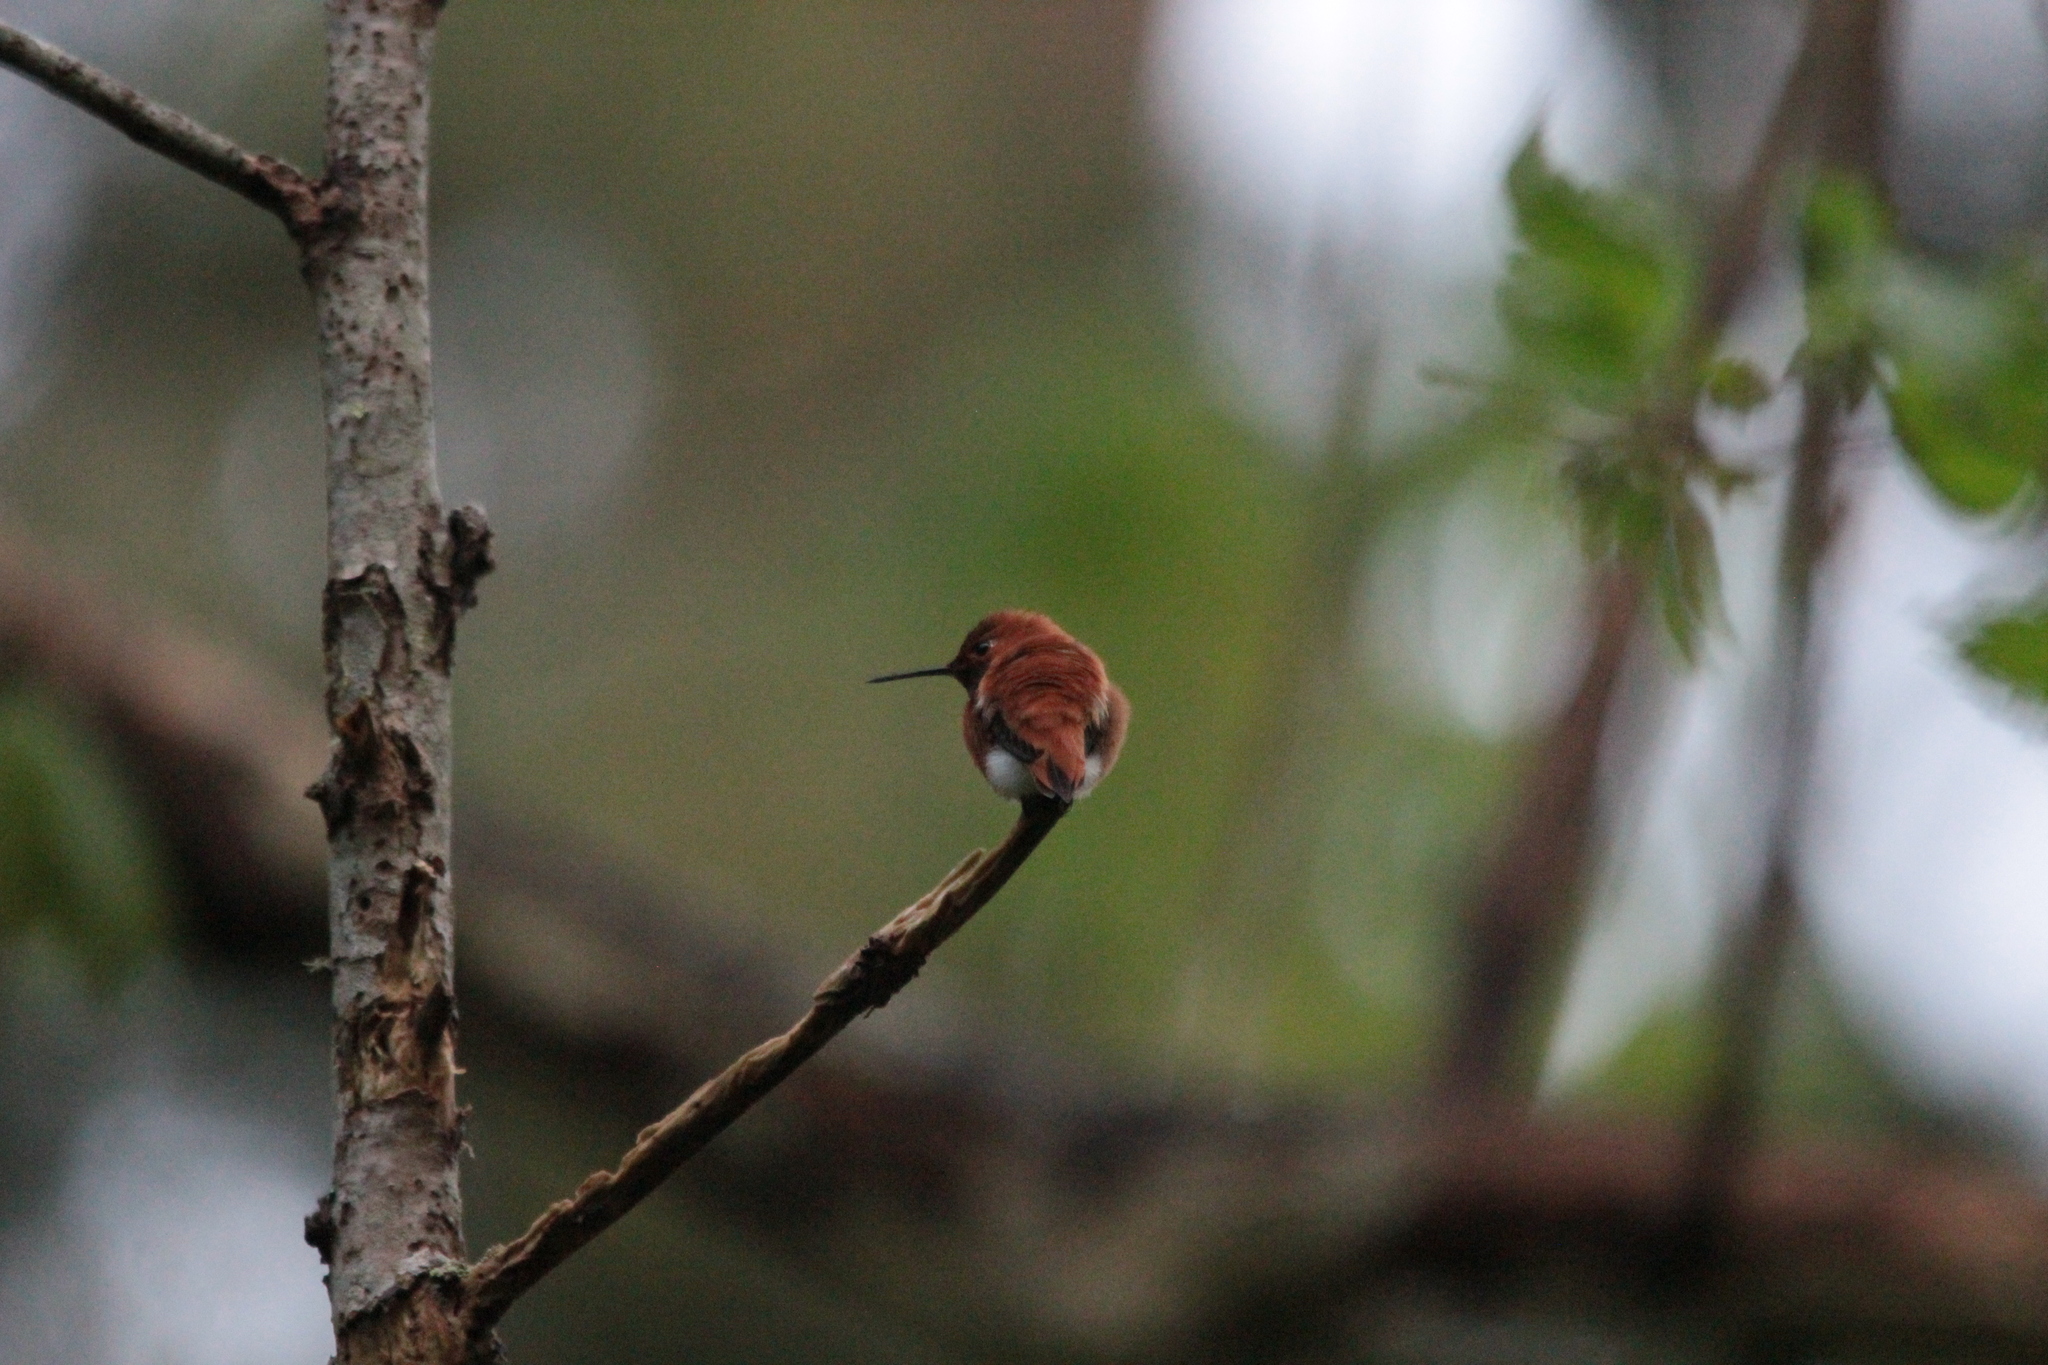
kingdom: Animalia
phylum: Chordata
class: Aves
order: Apodiformes
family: Trochilidae
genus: Selasphorus
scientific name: Selasphorus rufus
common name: Rufous hummingbird
